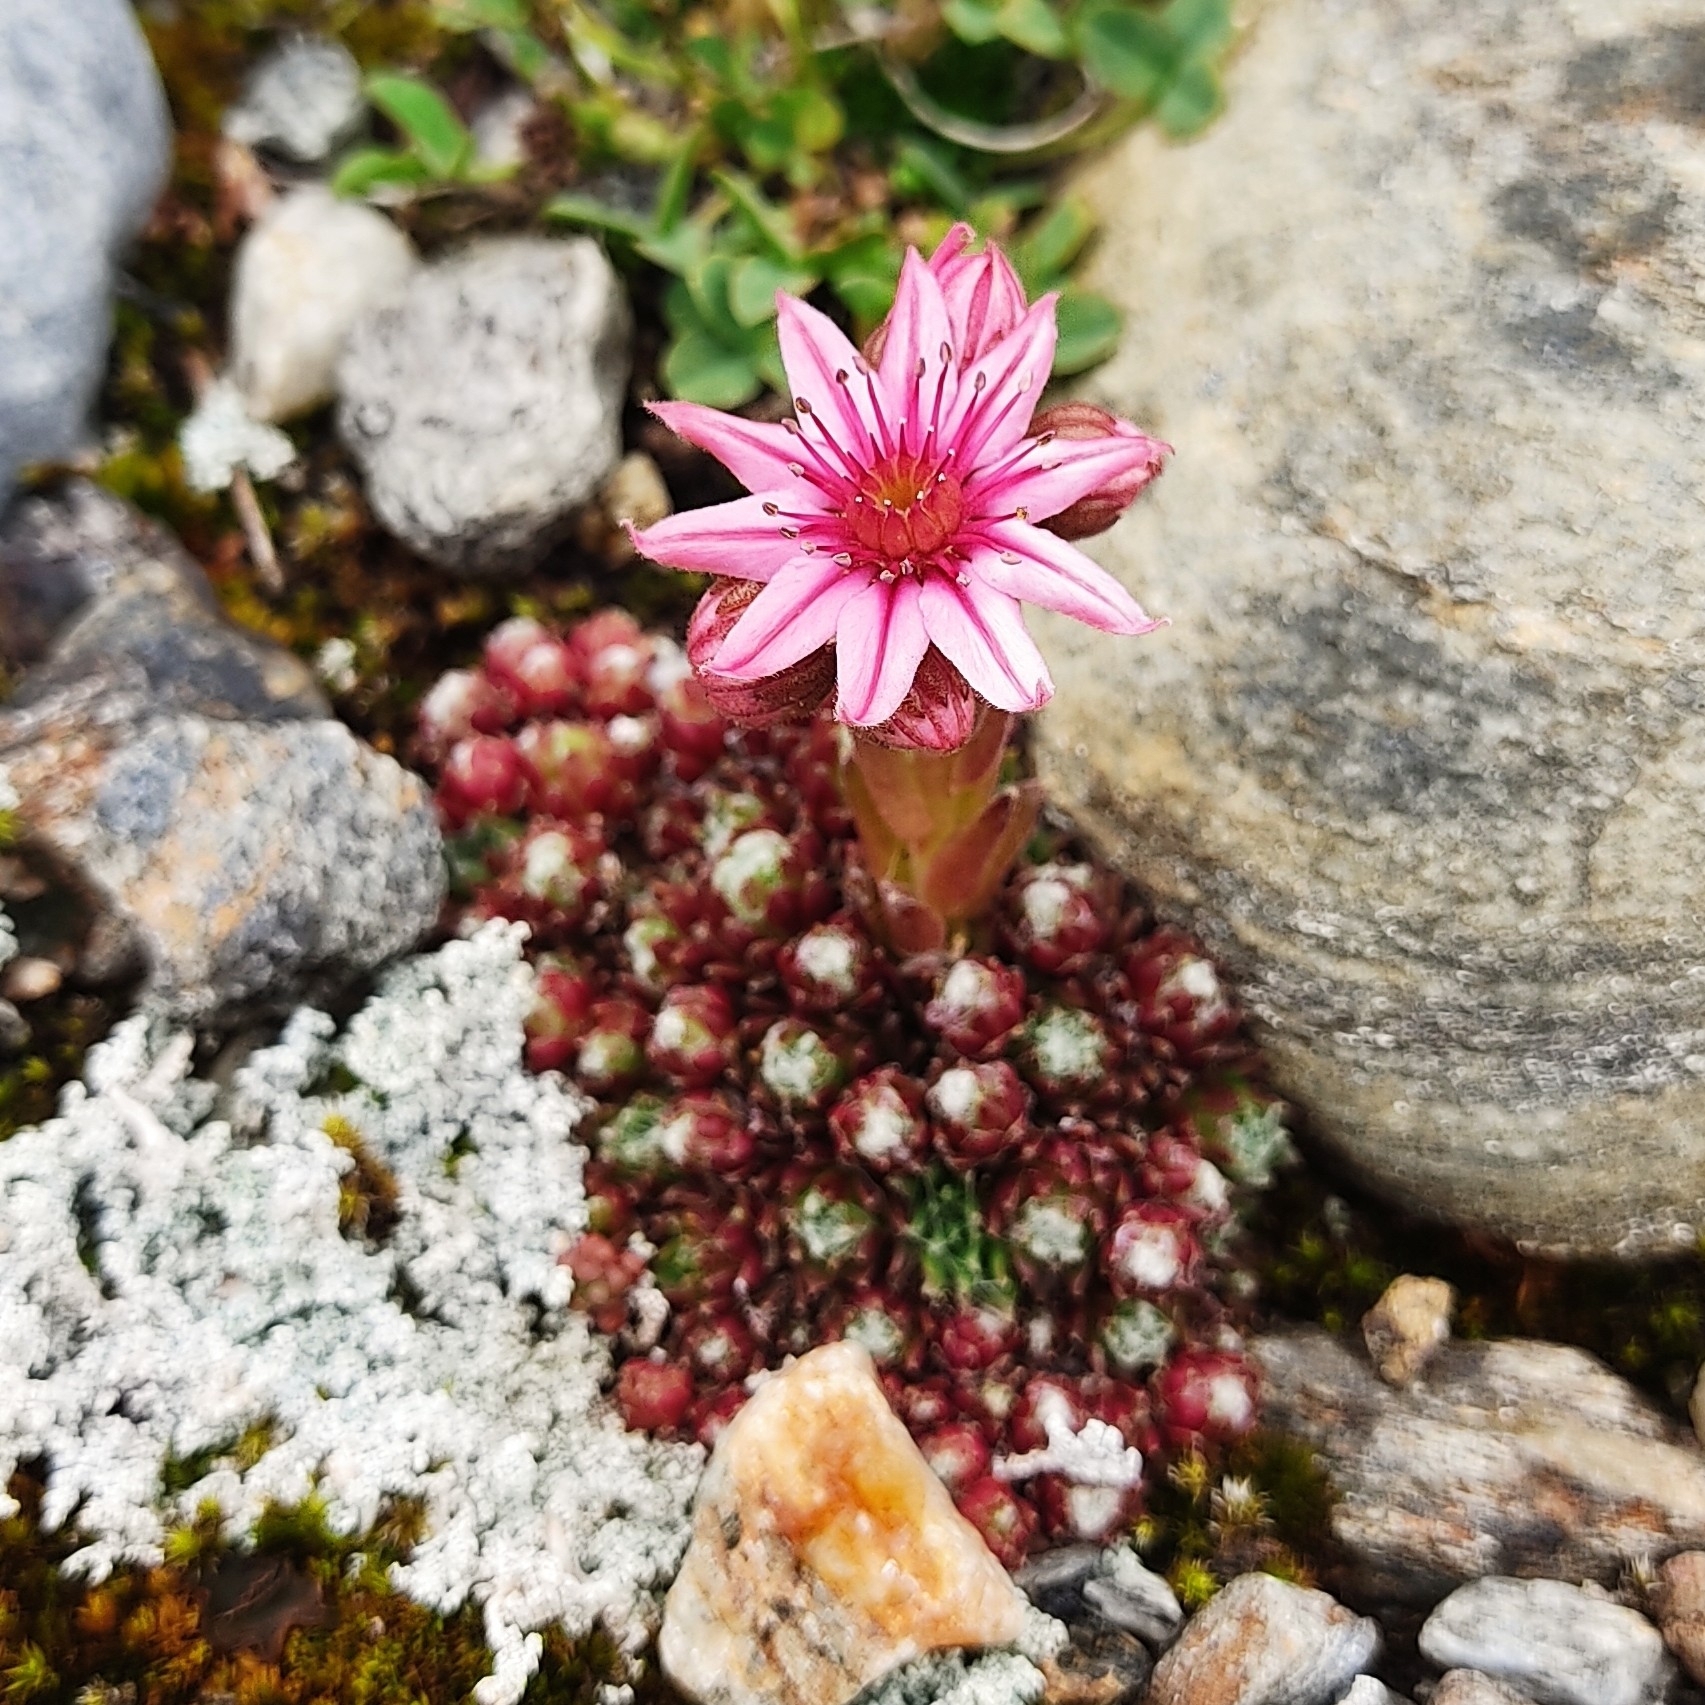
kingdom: Plantae
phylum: Tracheophyta
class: Magnoliopsida
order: Saxifragales
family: Crassulaceae
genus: Sempervivum
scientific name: Sempervivum arachnoideum
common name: Cobweb house-leek
